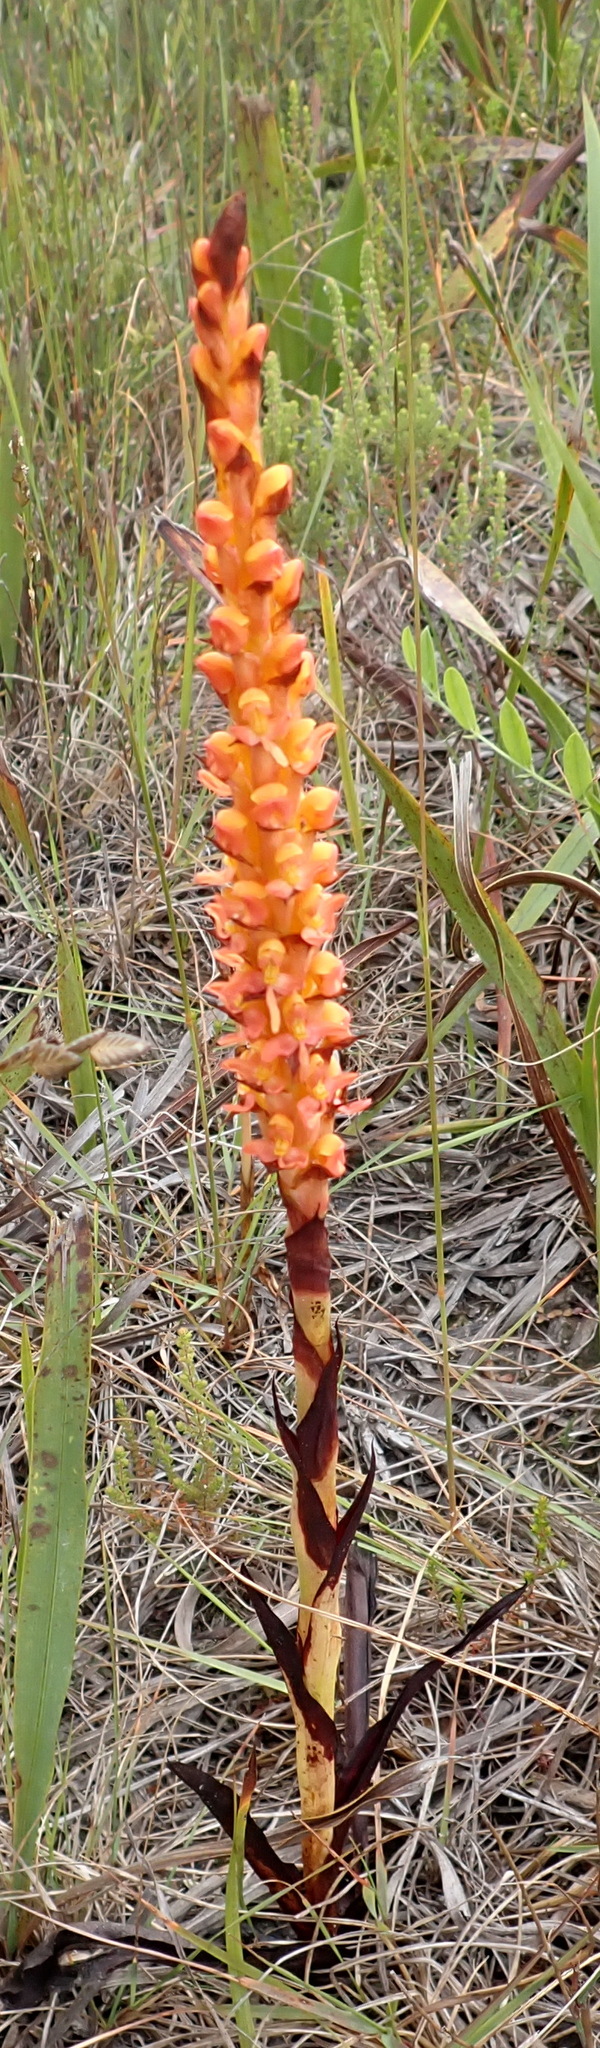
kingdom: Plantae
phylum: Tracheophyta
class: Liliopsida
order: Asparagales
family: Orchidaceae
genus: Disa
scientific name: Disa chrysostachya
